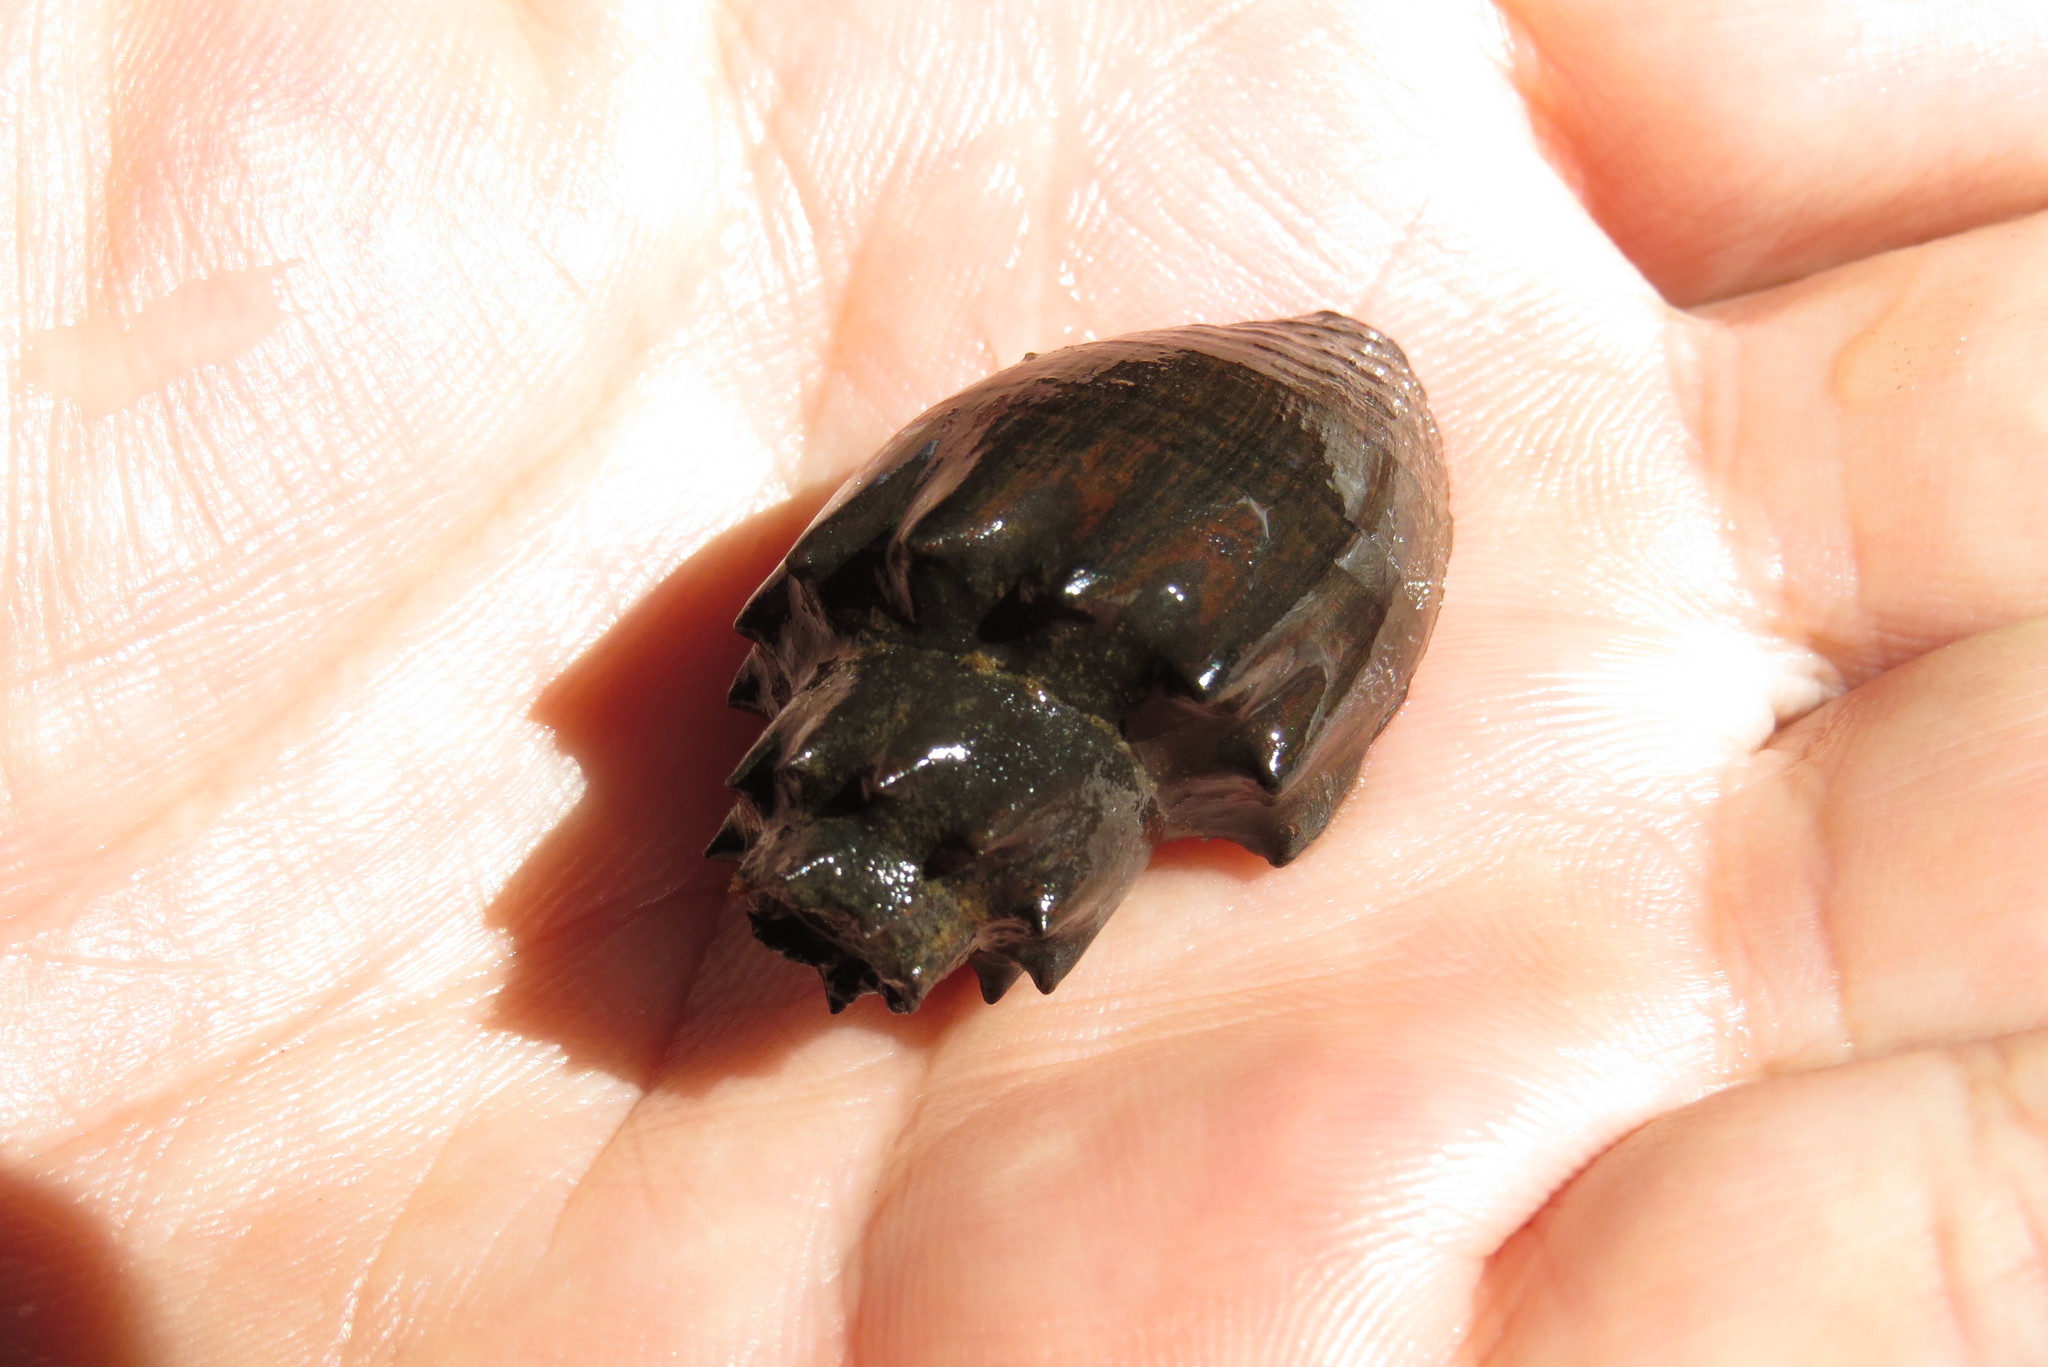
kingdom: Animalia
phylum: Mollusca
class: Gastropoda
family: Thiaridae
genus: Thiara
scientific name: Thiara amarula
